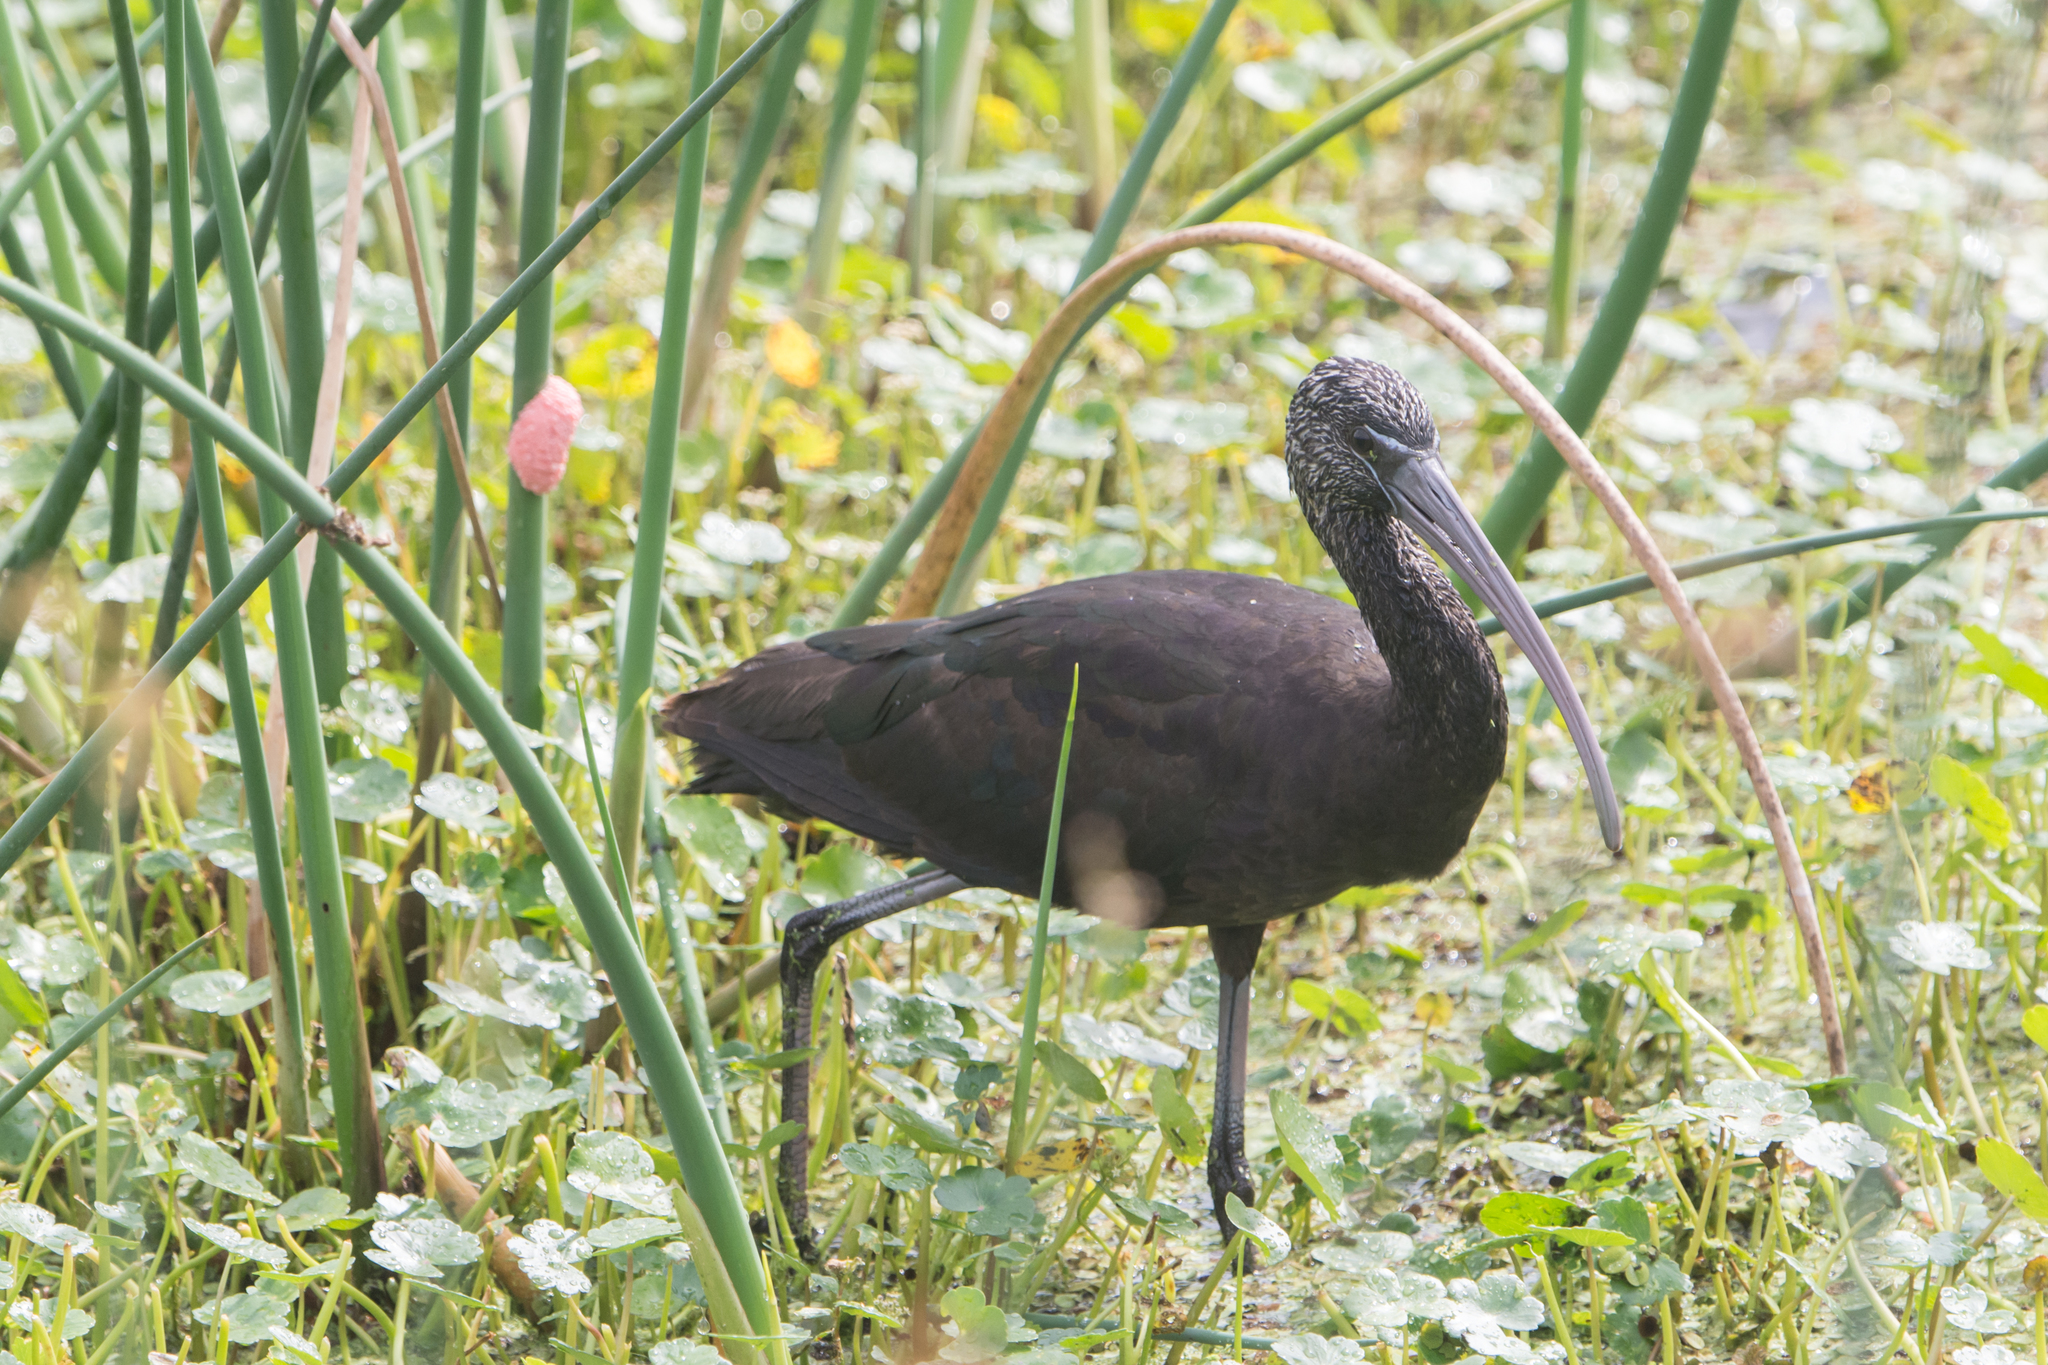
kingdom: Animalia
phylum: Chordata
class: Aves
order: Pelecaniformes
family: Threskiornithidae
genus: Plegadis
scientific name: Plegadis falcinellus
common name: Glossy ibis
